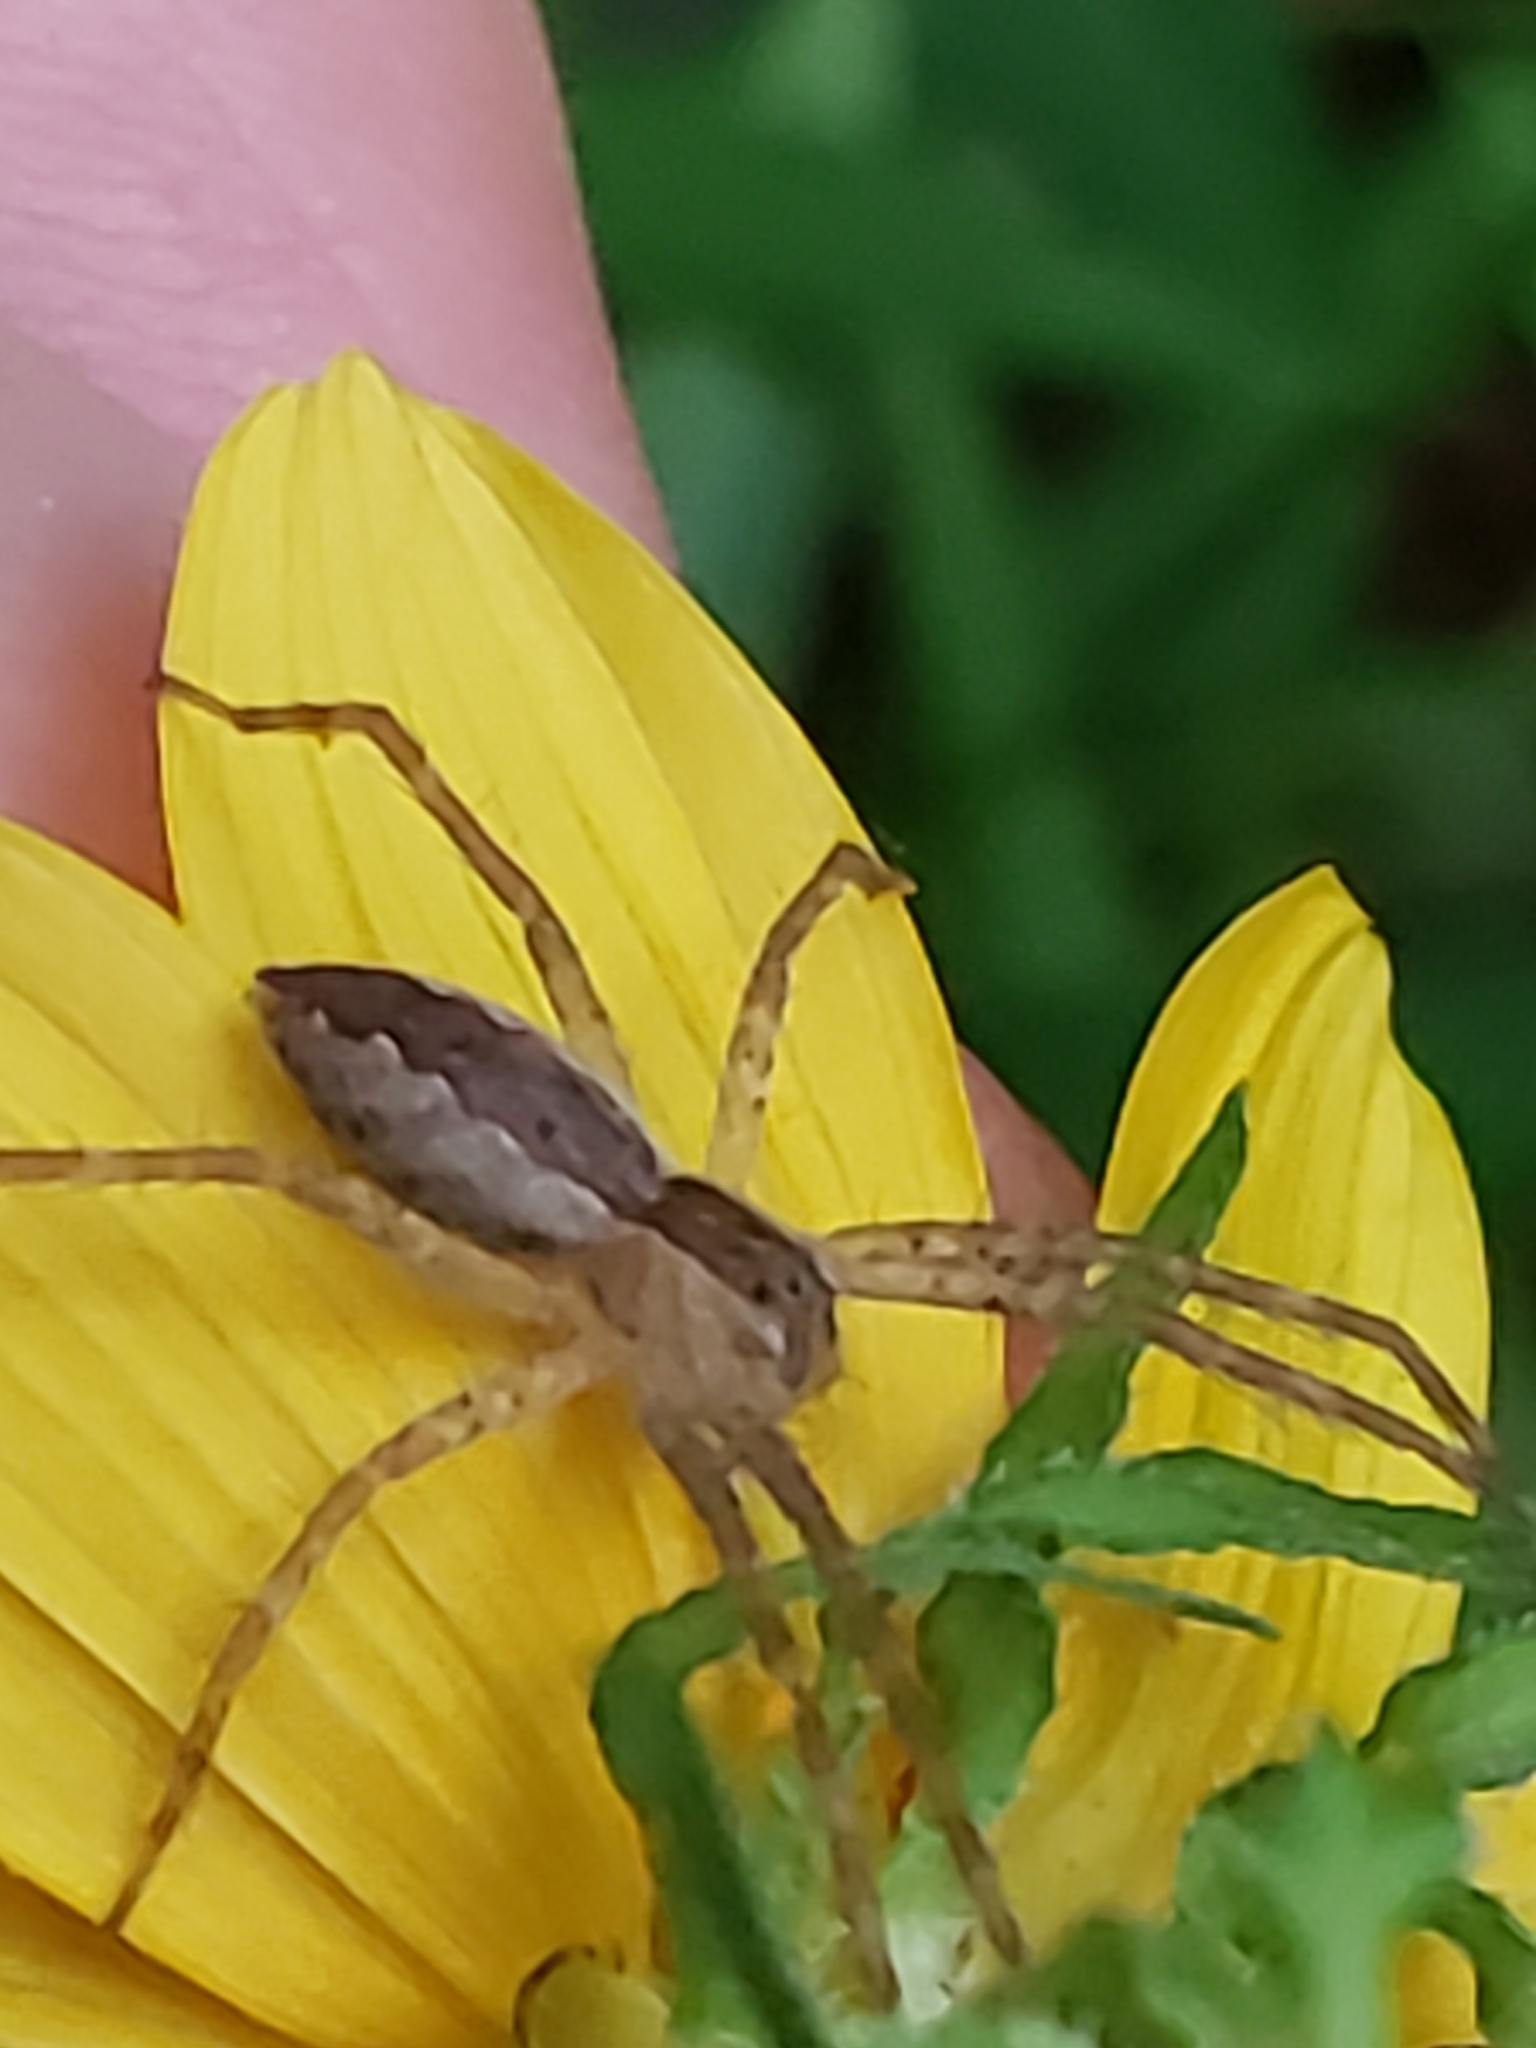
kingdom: Animalia
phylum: Arthropoda
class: Arachnida
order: Araneae
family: Pisauridae
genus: Pisaurina
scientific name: Pisaurina mira
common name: American nursery web spider
